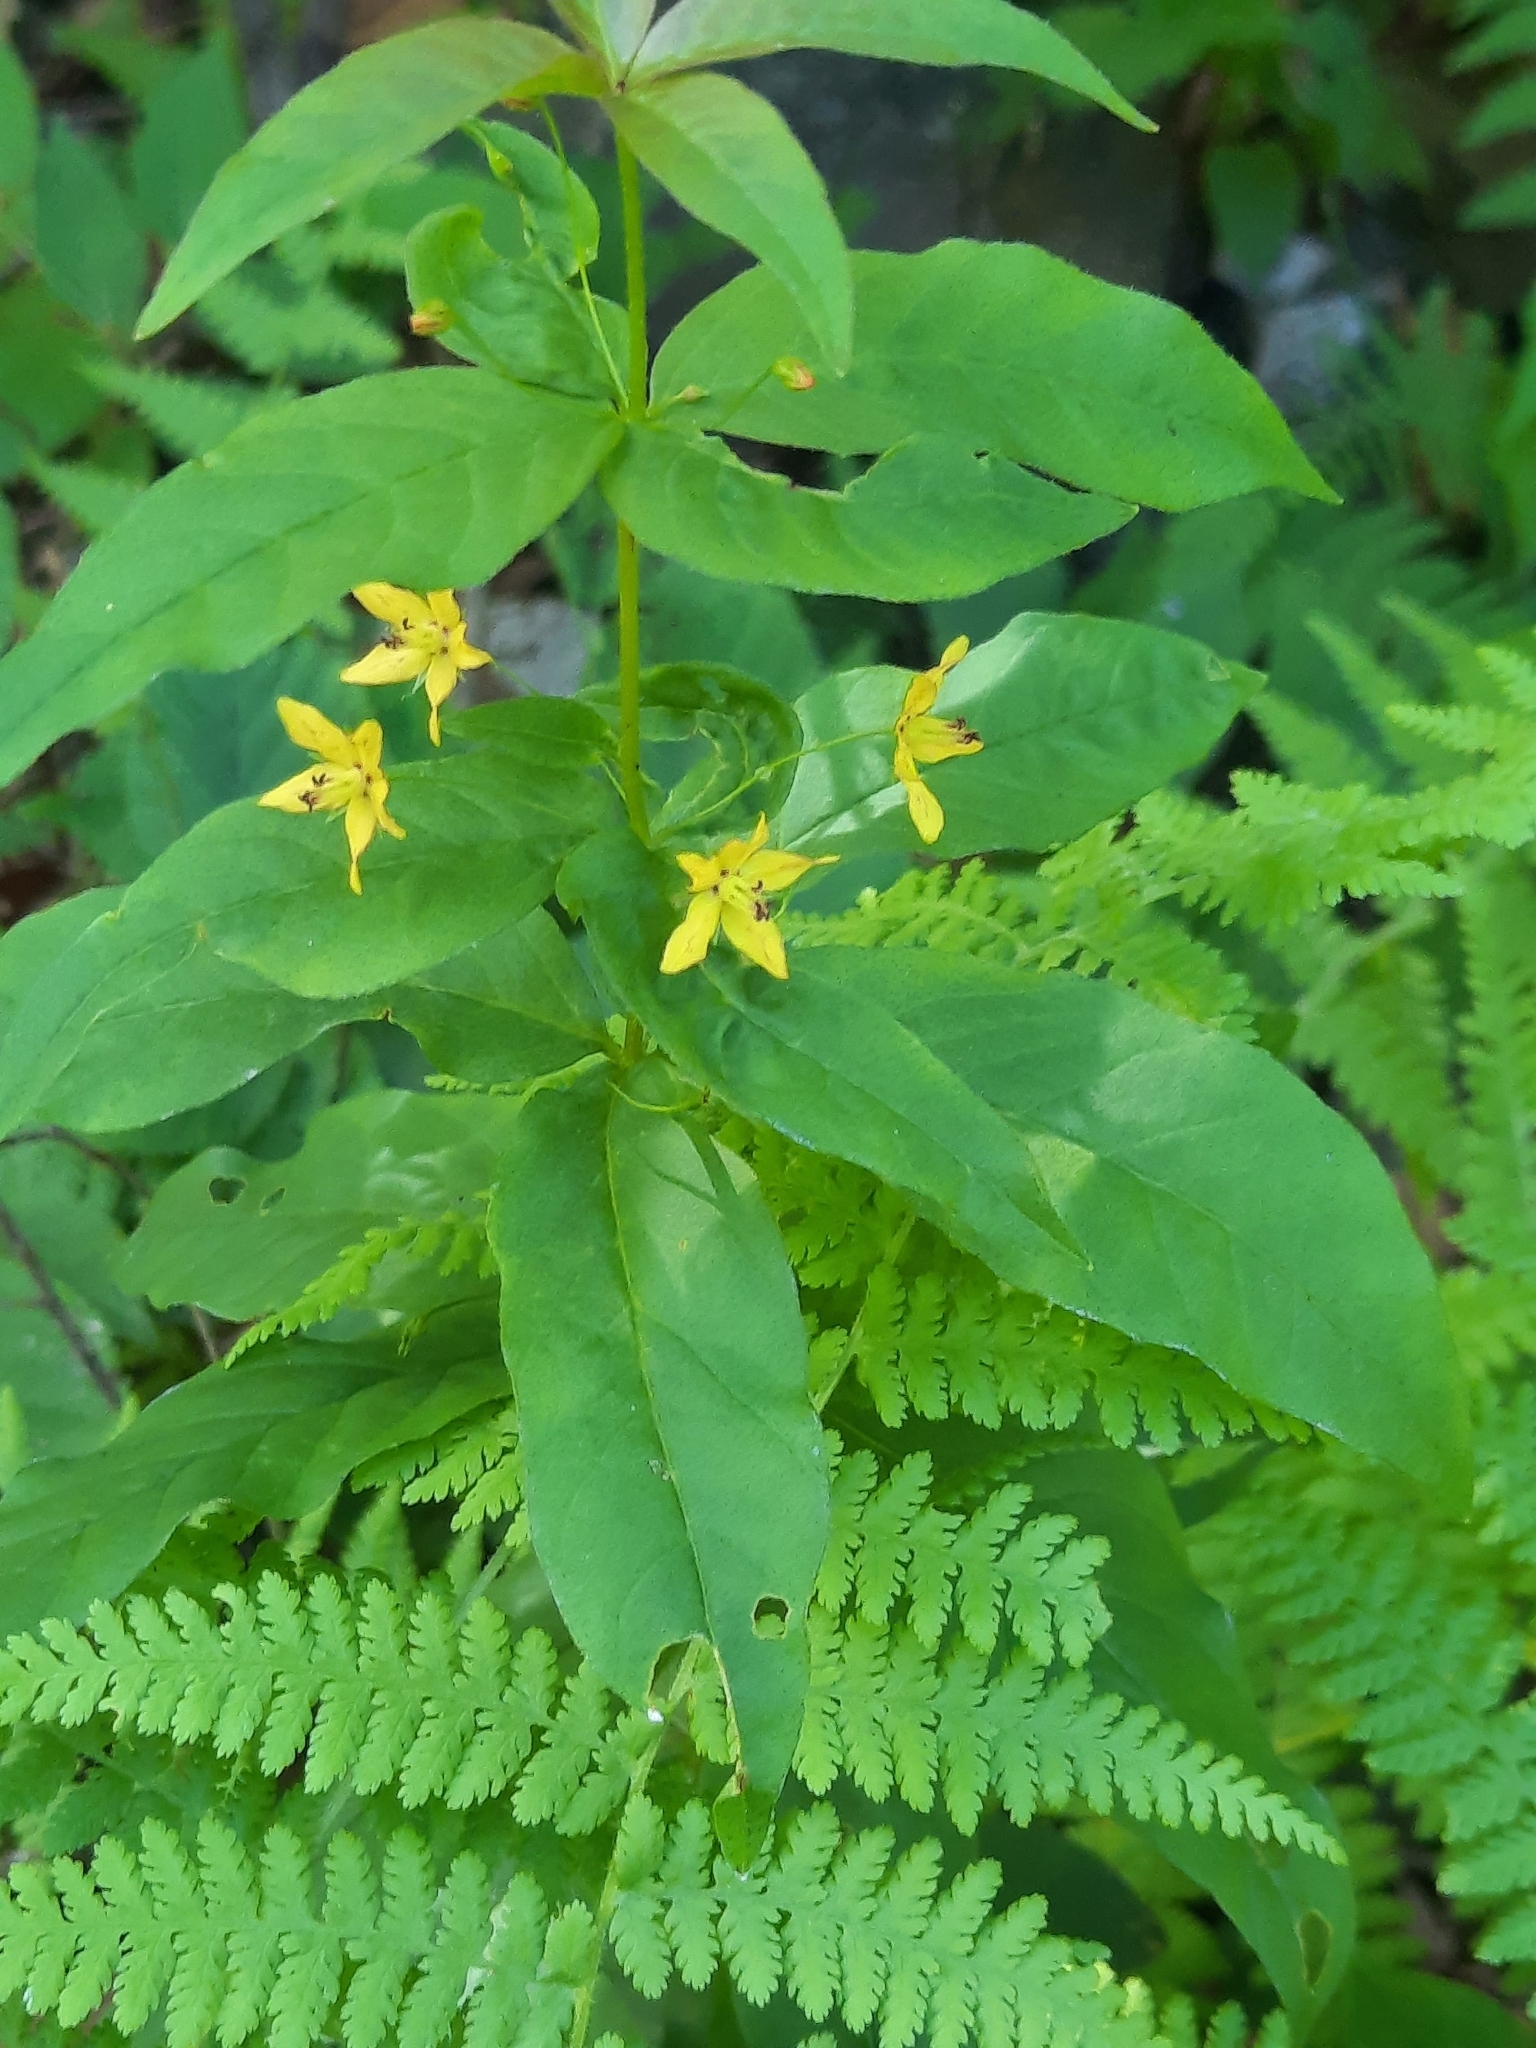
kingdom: Plantae
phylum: Tracheophyta
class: Magnoliopsida
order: Ericales
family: Primulaceae
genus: Lysimachia
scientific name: Lysimachia quadrifolia
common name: Whorled loosestrife
